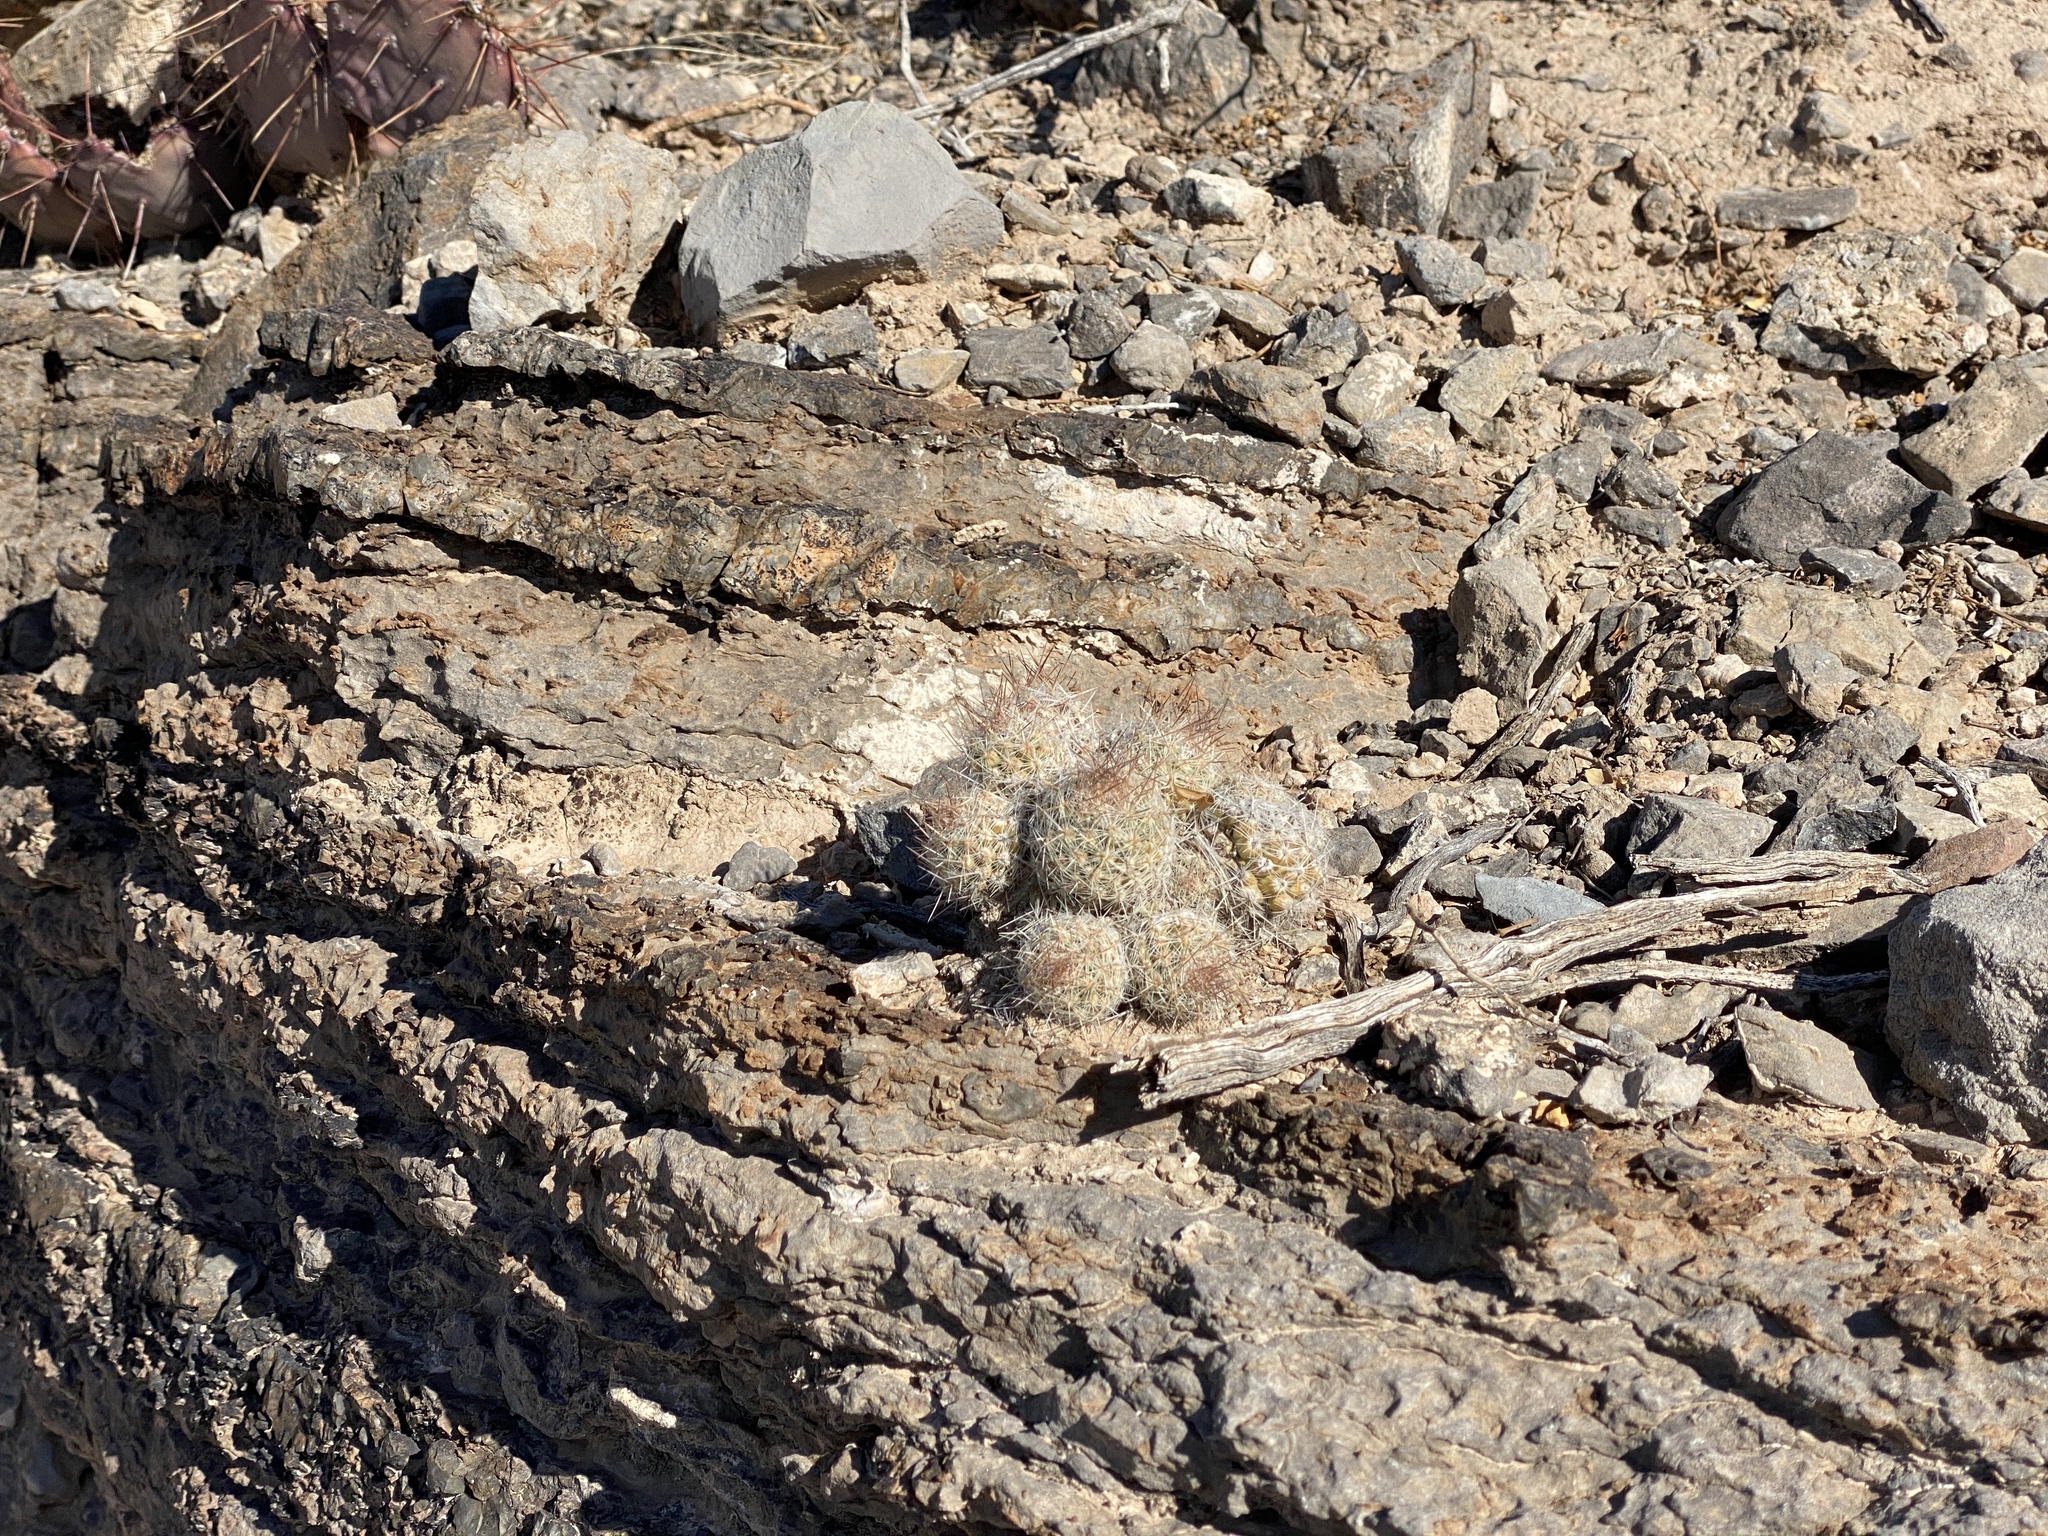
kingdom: Plantae
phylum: Tracheophyta
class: Magnoliopsida
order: Caryophyllales
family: Cactaceae
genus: Pelecyphora
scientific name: Pelecyphora tuberculosa
